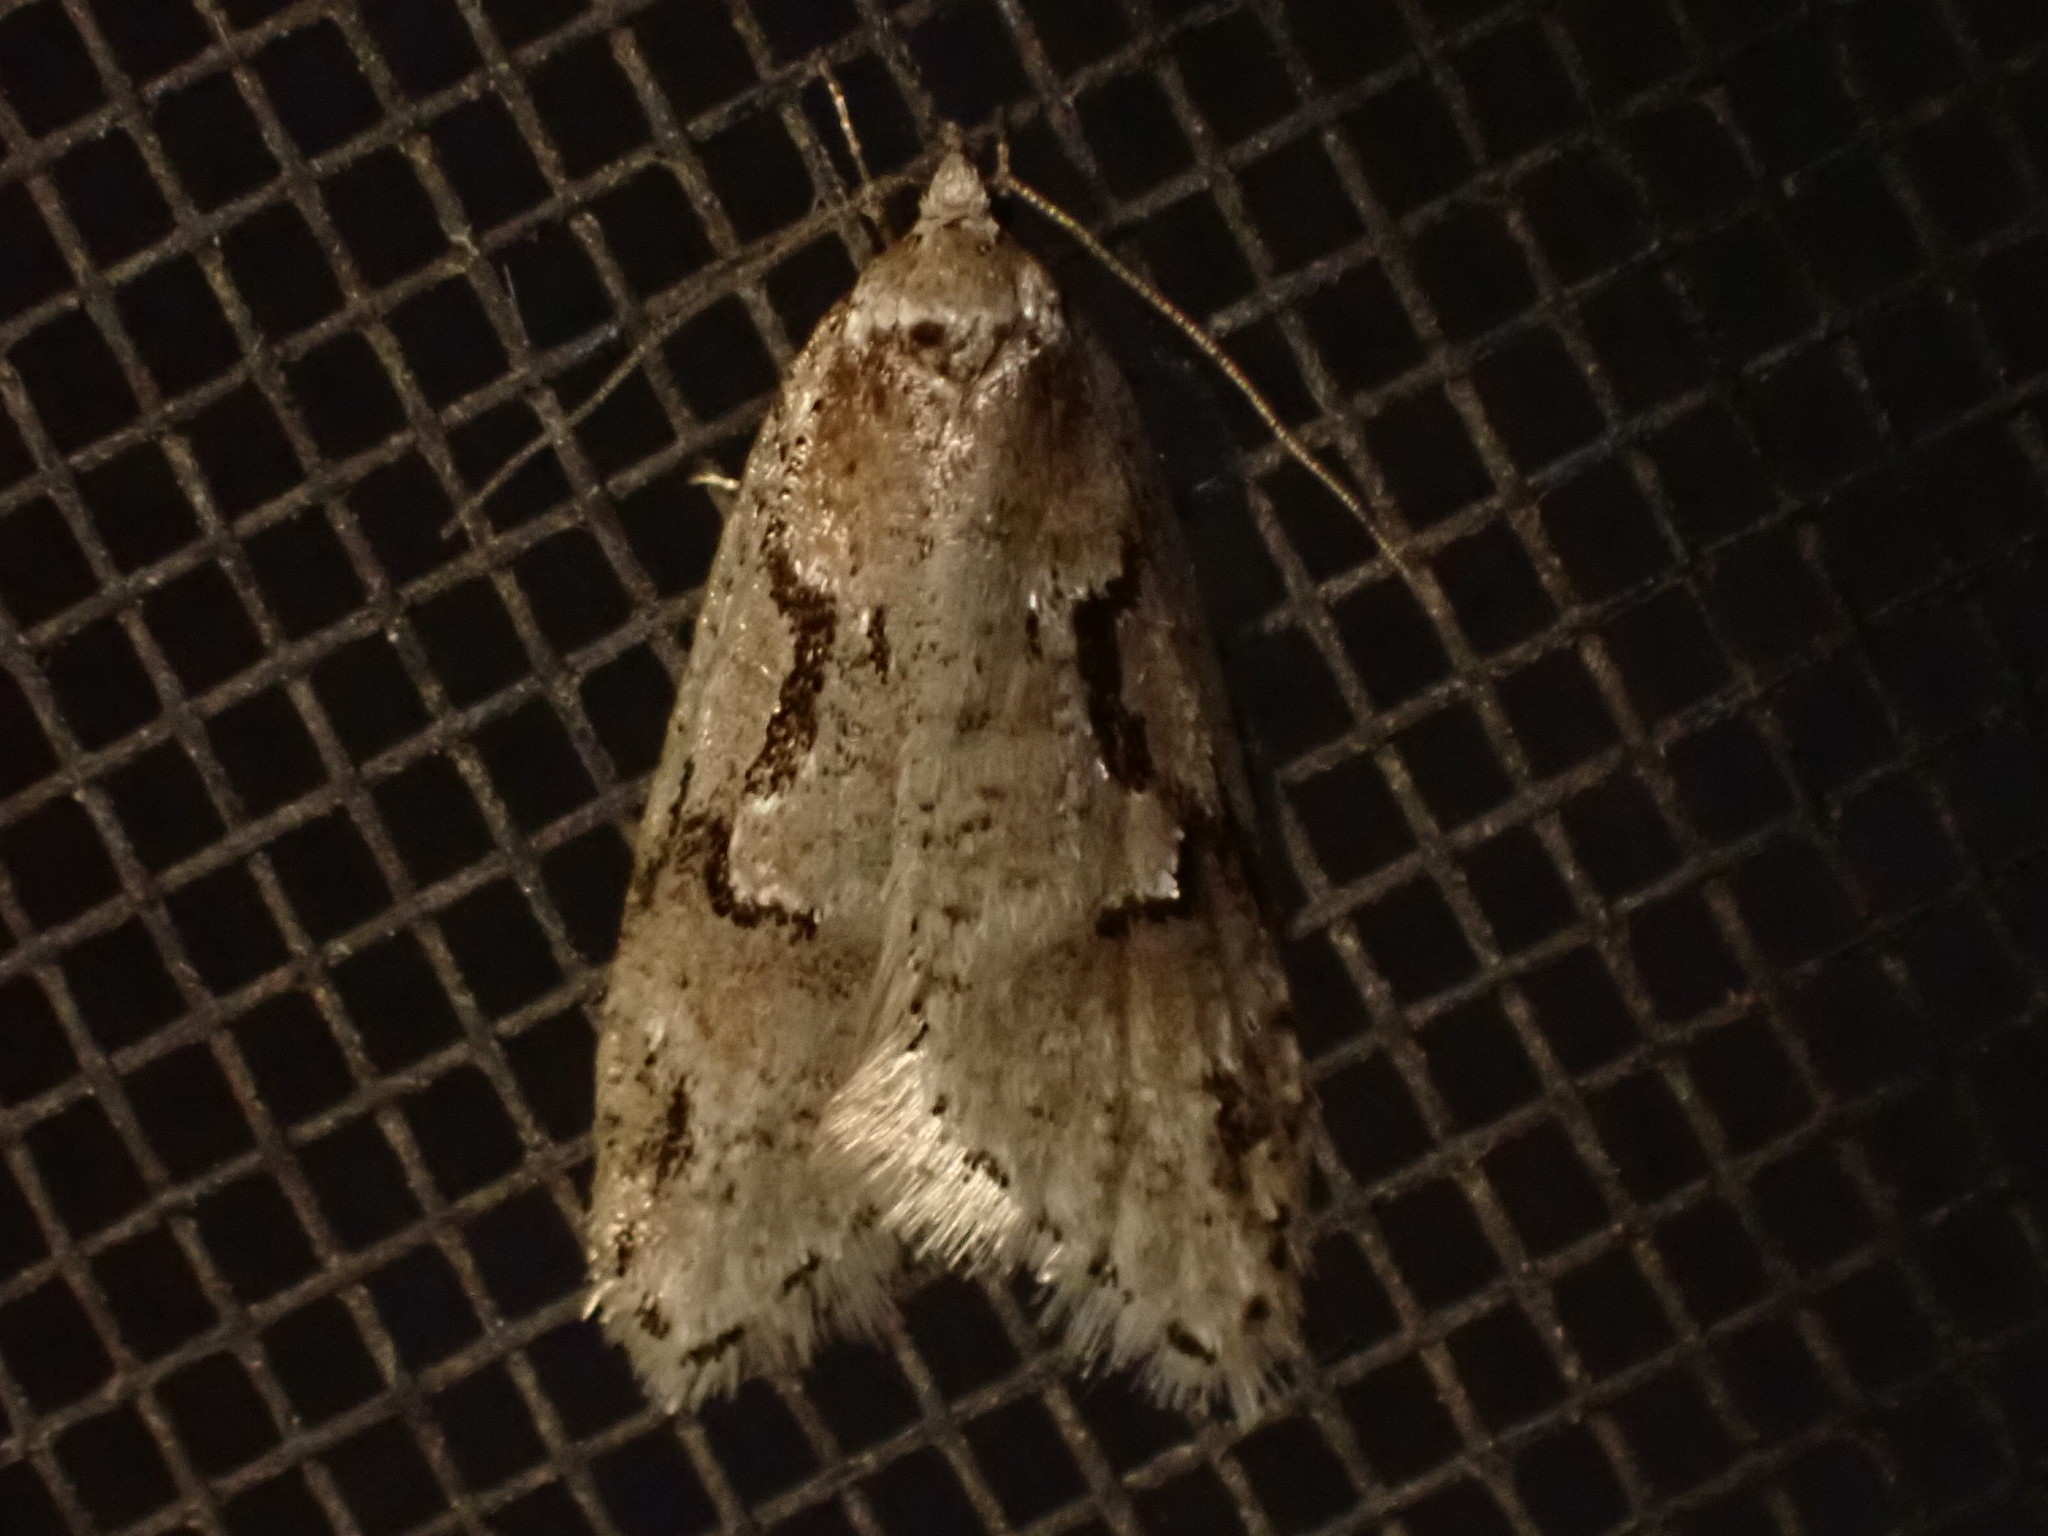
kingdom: Animalia
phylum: Arthropoda
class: Insecta
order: Lepidoptera
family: Depressariidae
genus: Semioscopis
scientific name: Semioscopis merriccella
